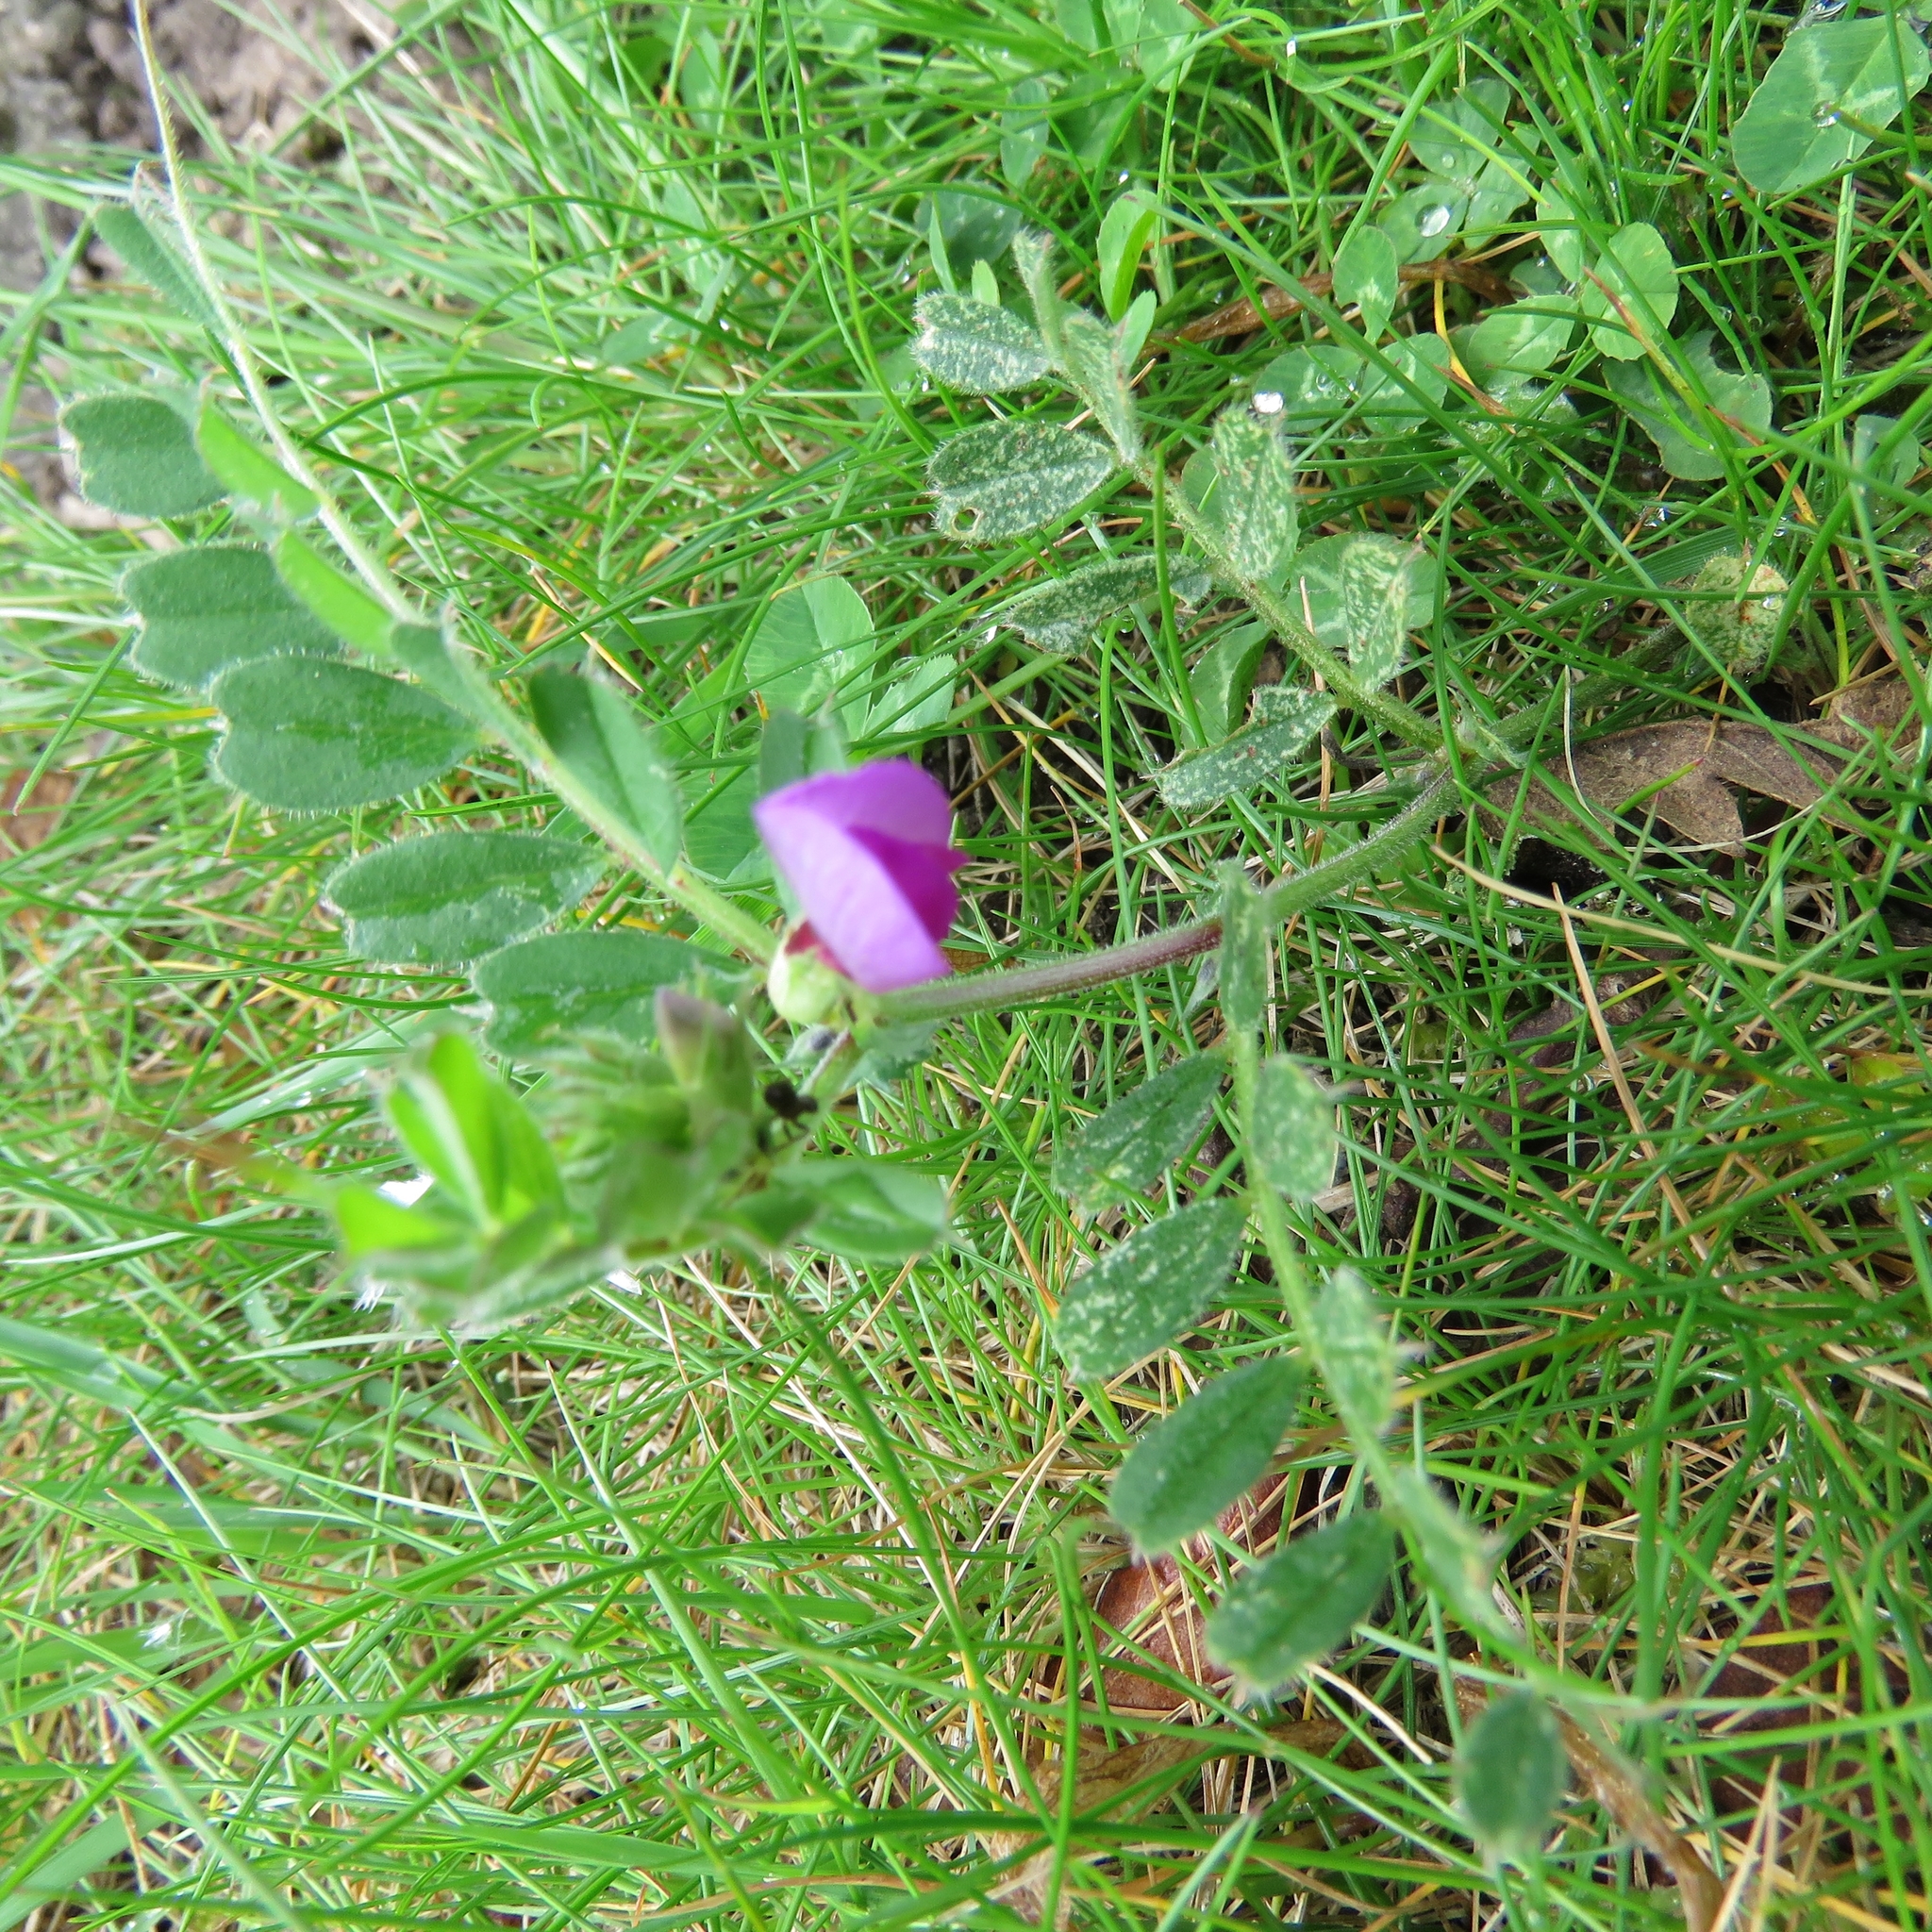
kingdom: Plantae
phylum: Tracheophyta
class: Magnoliopsida
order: Fabales
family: Fabaceae
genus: Vicia
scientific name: Vicia sativa
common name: Garden vetch
